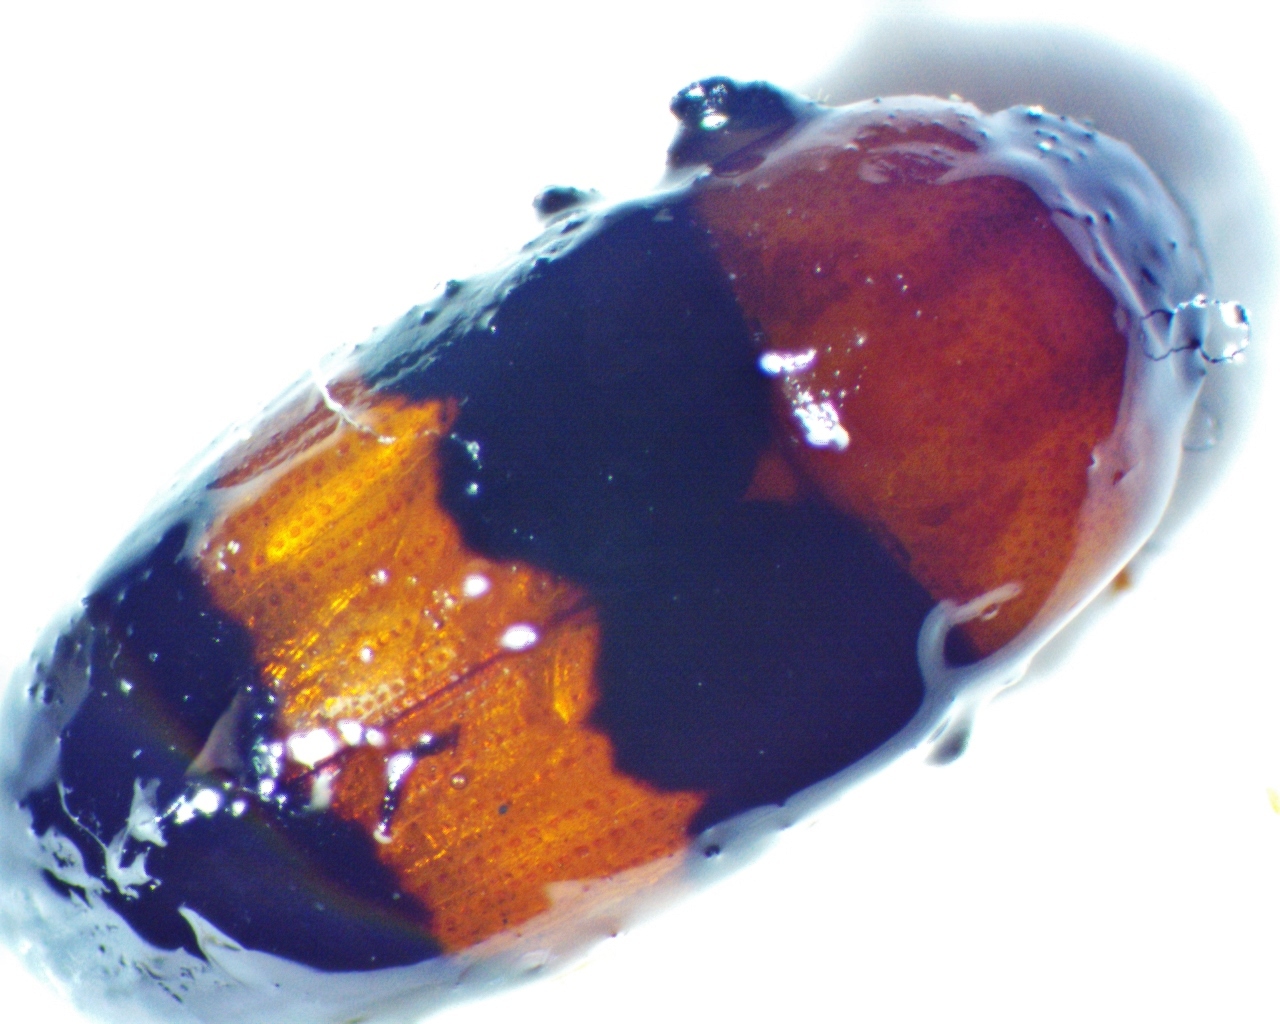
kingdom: Animalia
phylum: Arthropoda
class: Insecta
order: Coleoptera
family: Erotylidae
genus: Triplax
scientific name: Triplax festiva
